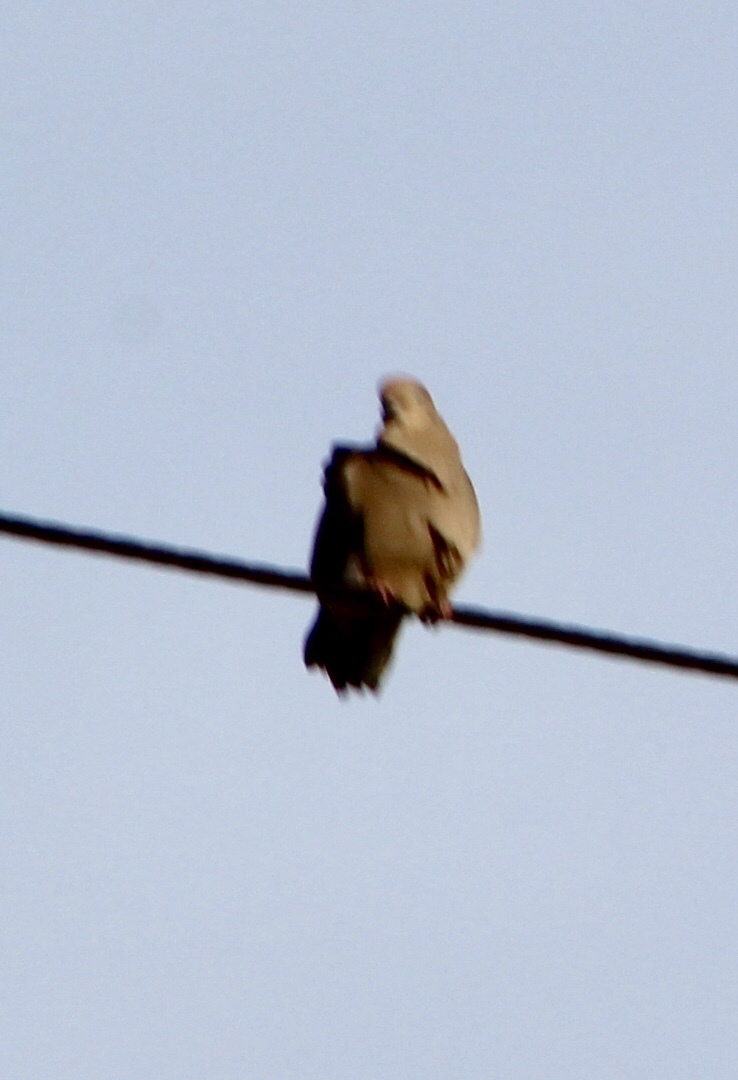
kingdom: Animalia
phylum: Chordata
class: Aves
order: Columbiformes
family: Columbidae
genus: Streptopelia
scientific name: Streptopelia decaocto
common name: Eurasian collared dove
